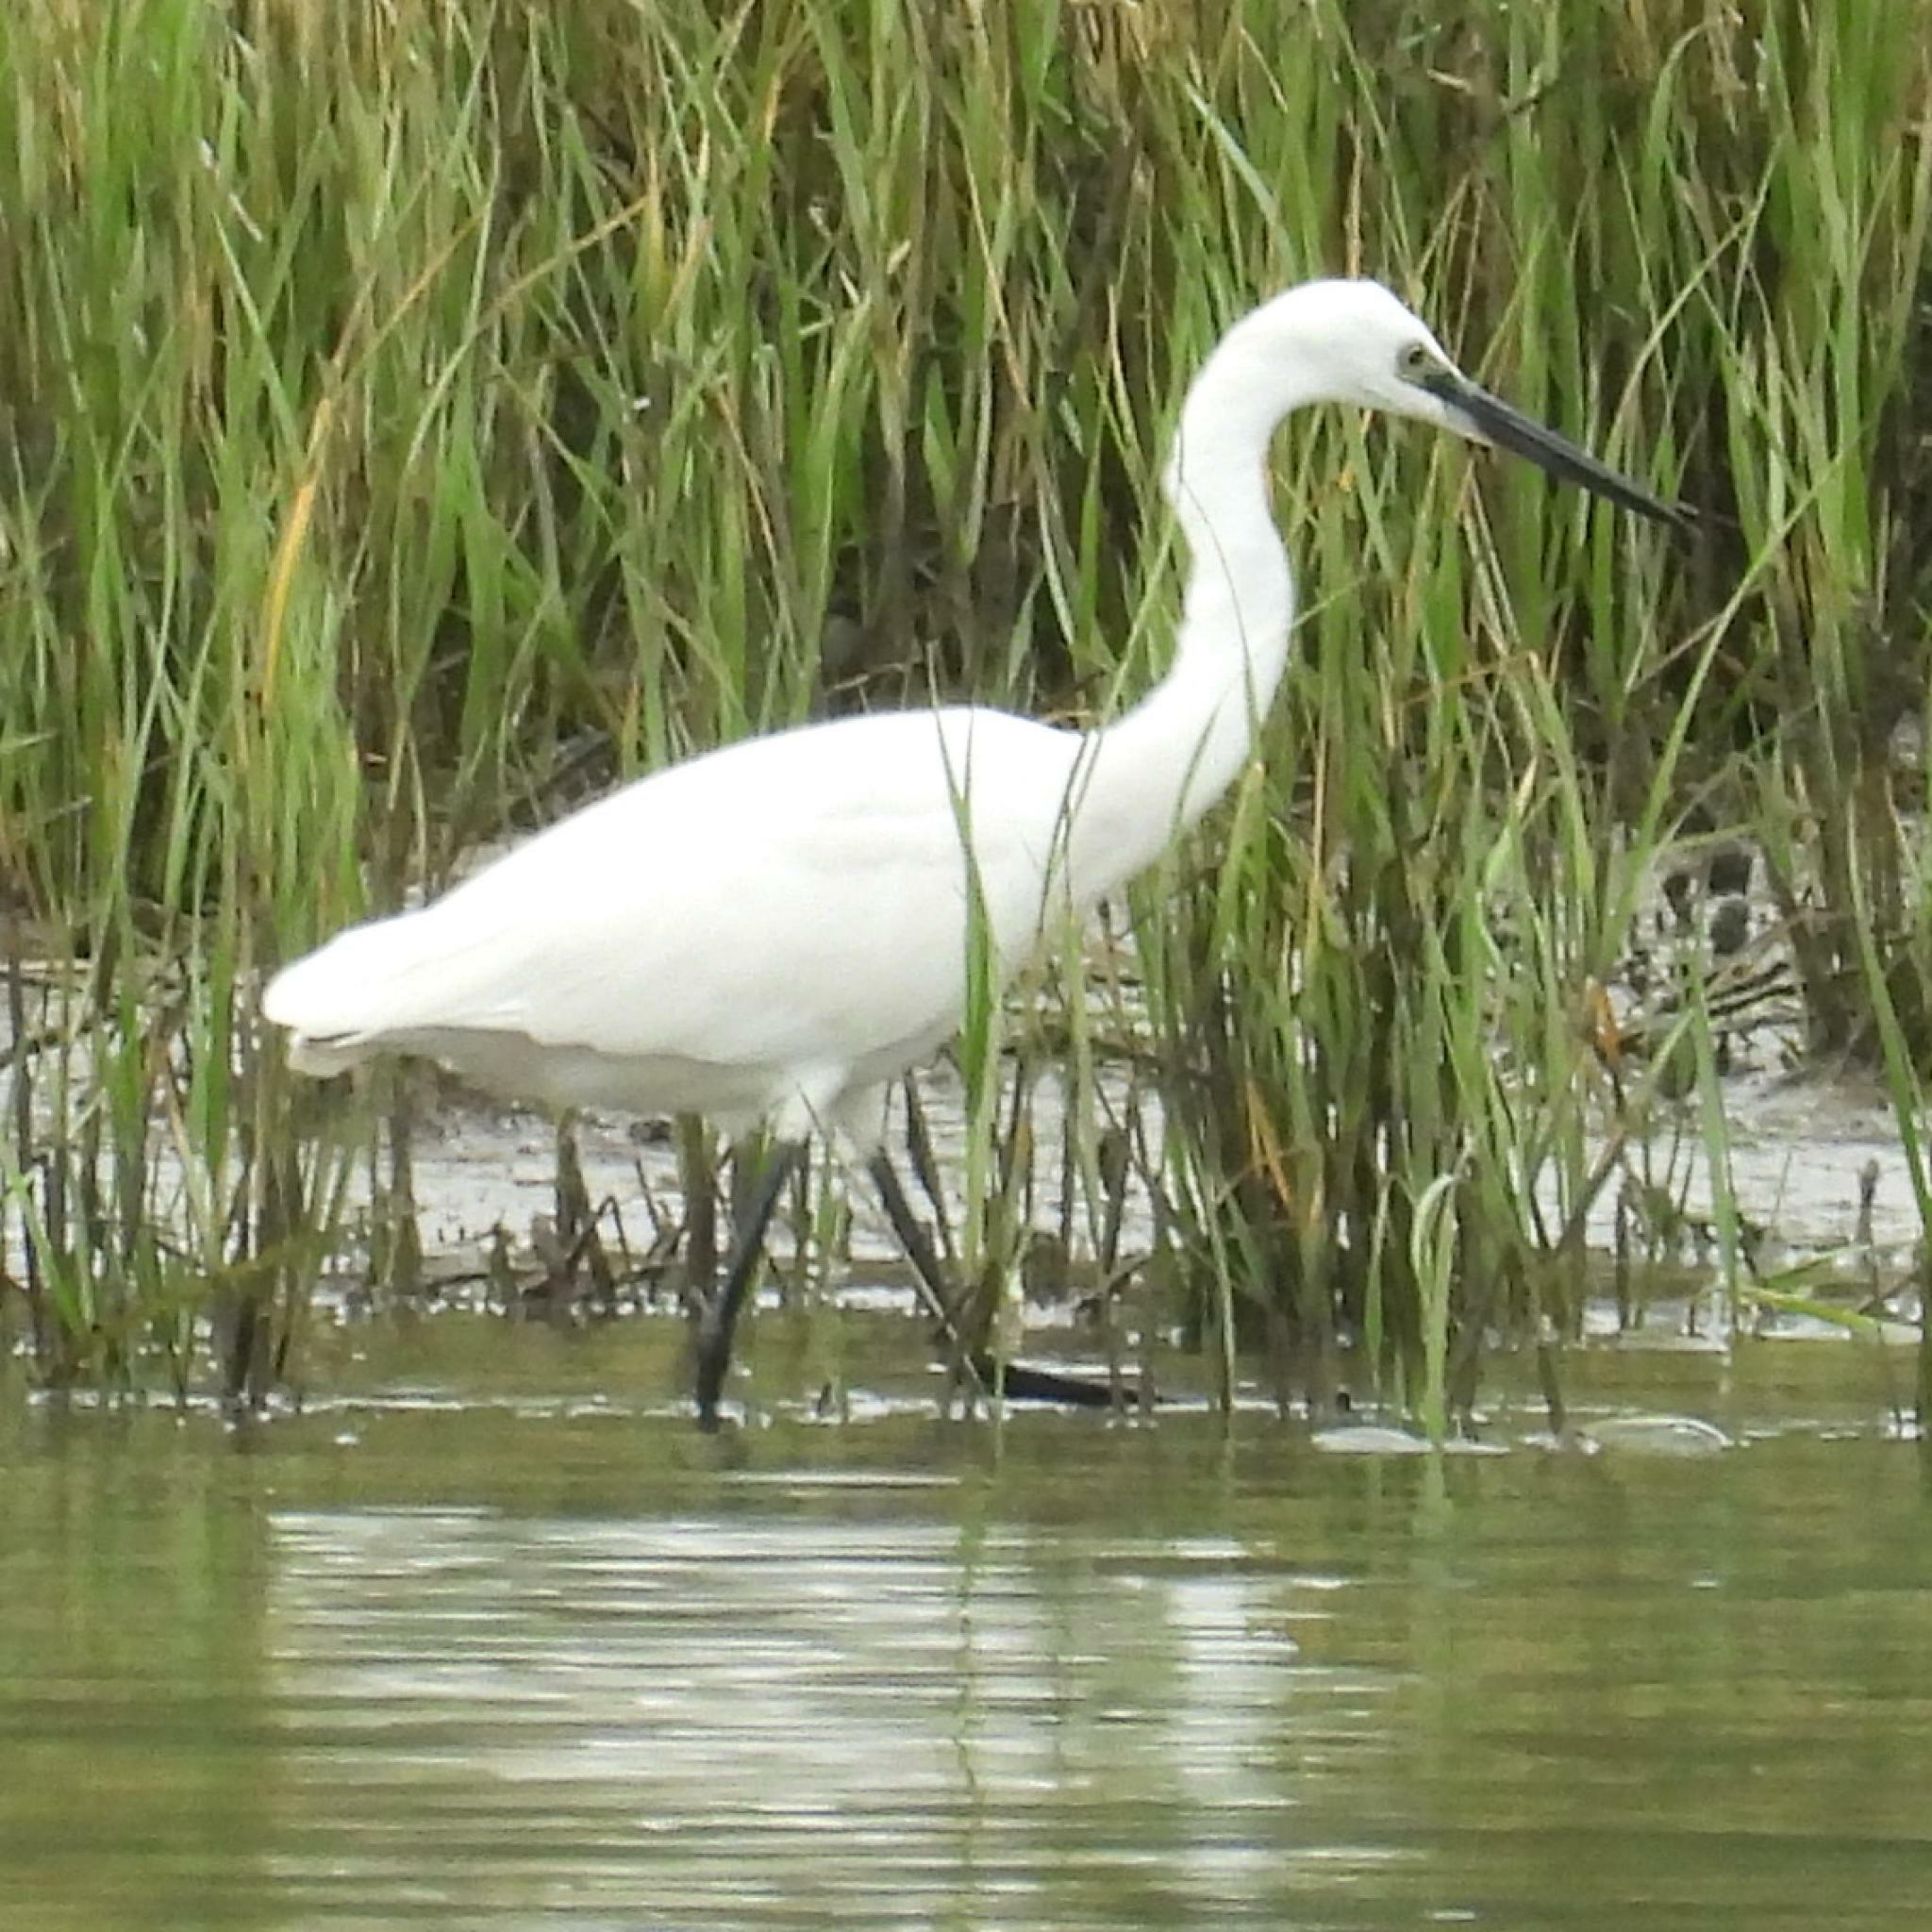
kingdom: Animalia
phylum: Chordata
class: Aves
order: Pelecaniformes
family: Ardeidae
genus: Egretta
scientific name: Egretta garzetta
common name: Little egret
